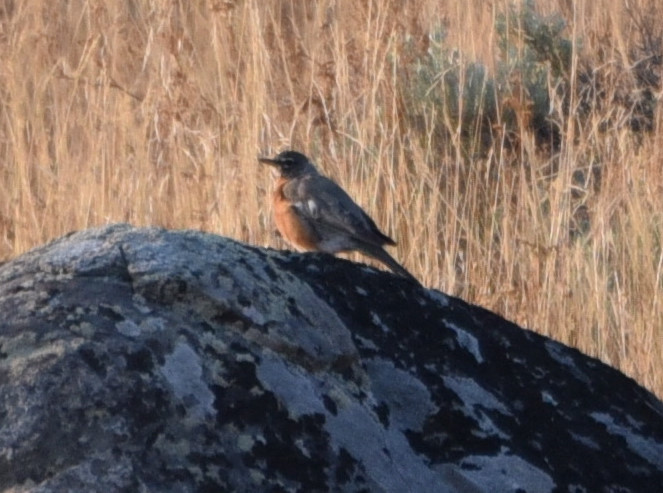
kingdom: Animalia
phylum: Chordata
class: Aves
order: Passeriformes
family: Turdidae
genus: Turdus
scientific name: Turdus migratorius
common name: American robin
